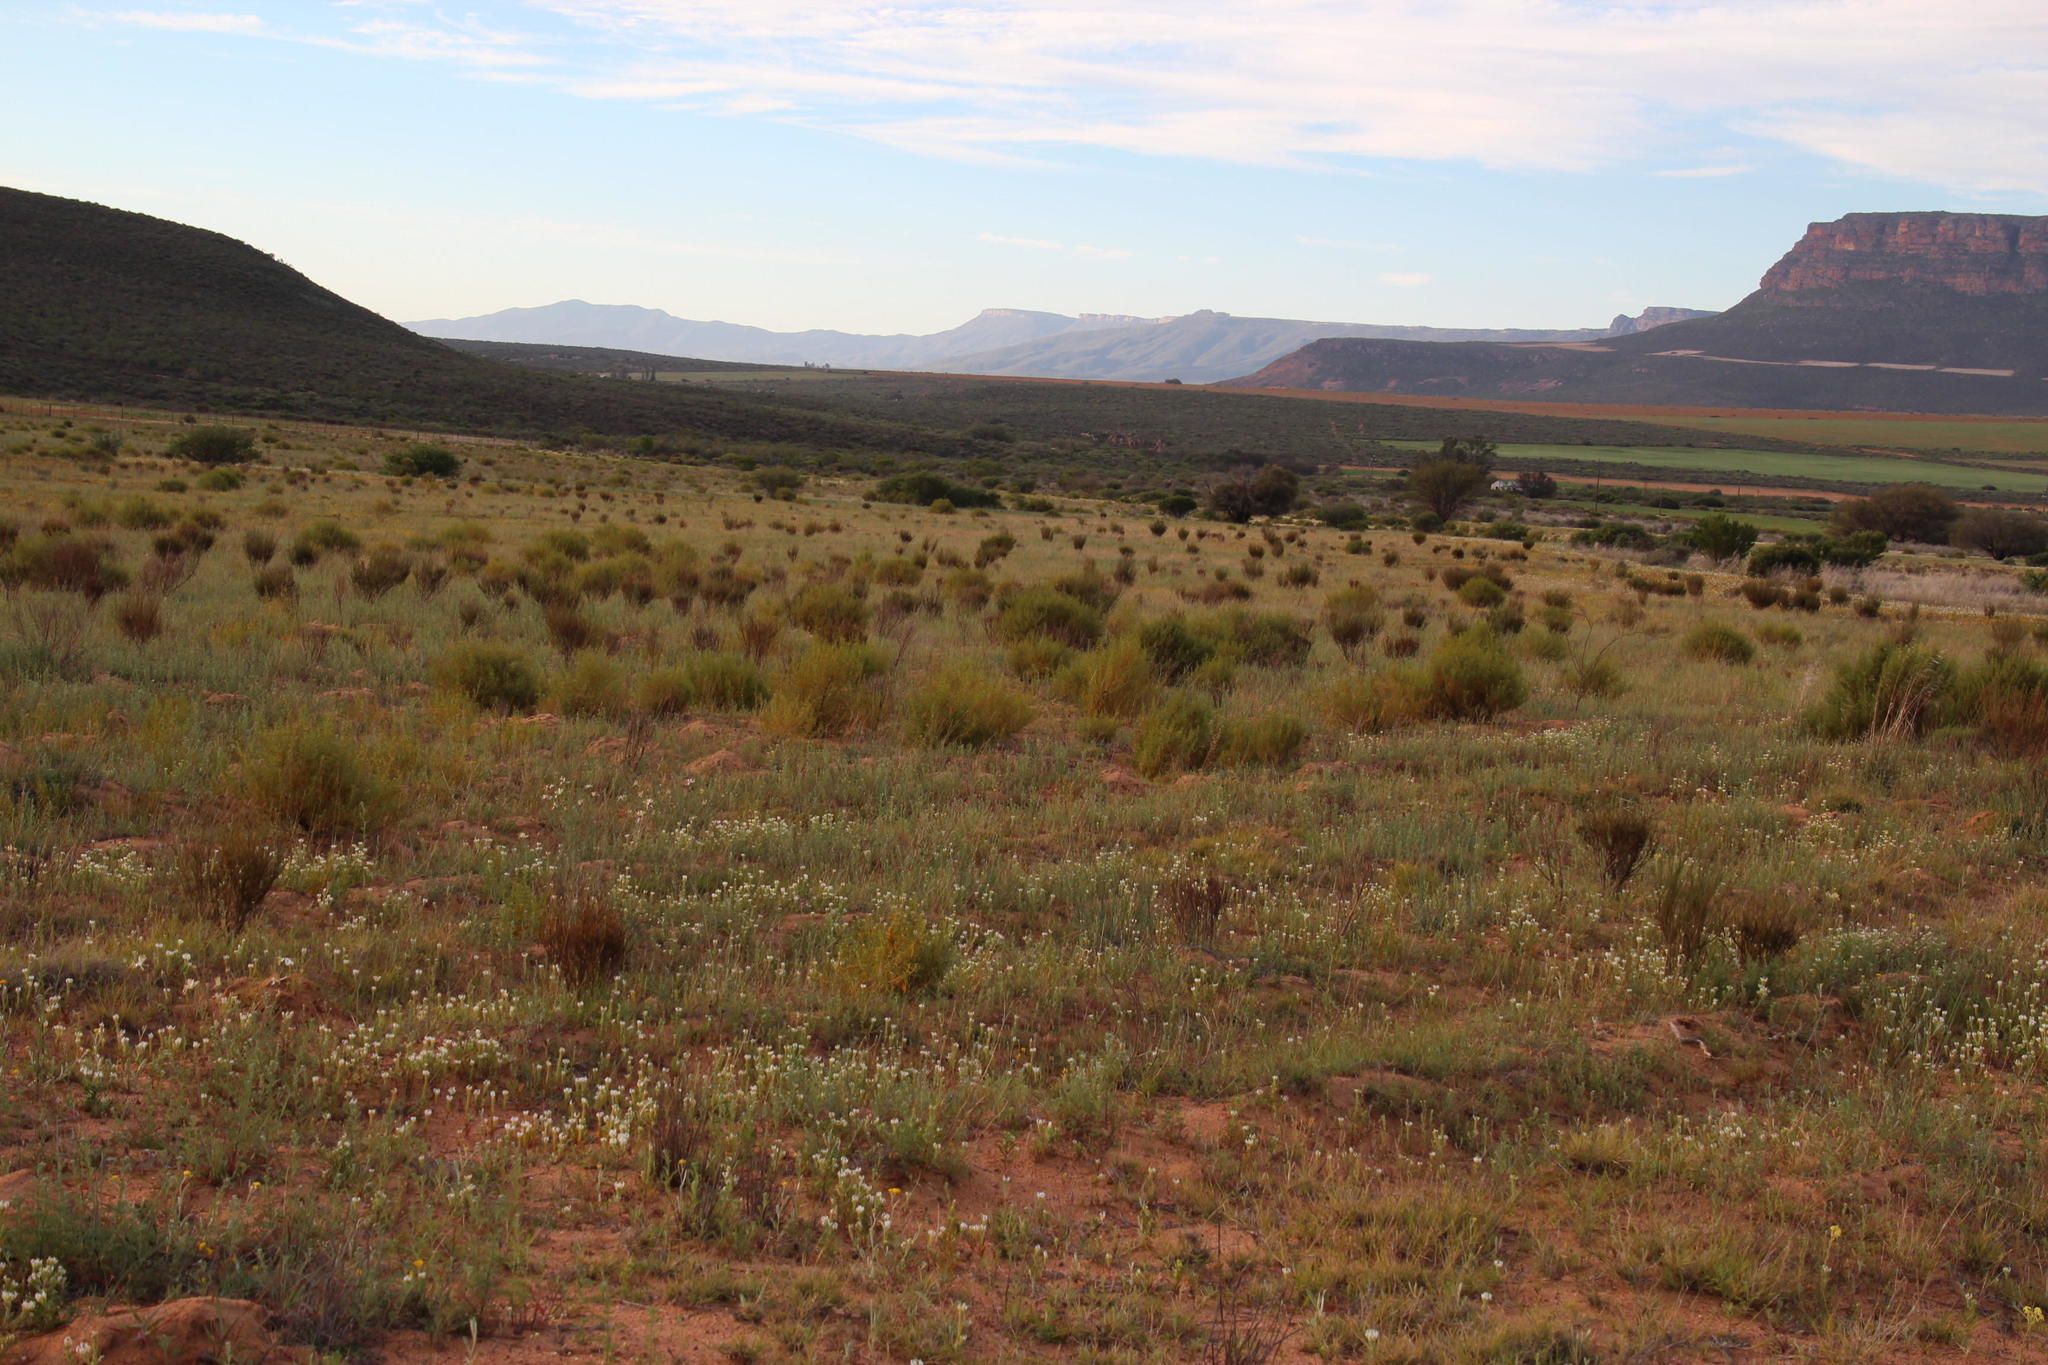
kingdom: Plantae
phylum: Tracheophyta
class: Magnoliopsida
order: Fabales
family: Fabaceae
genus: Aspalathus
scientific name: Aspalathus linearis
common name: Rooibos-tea
